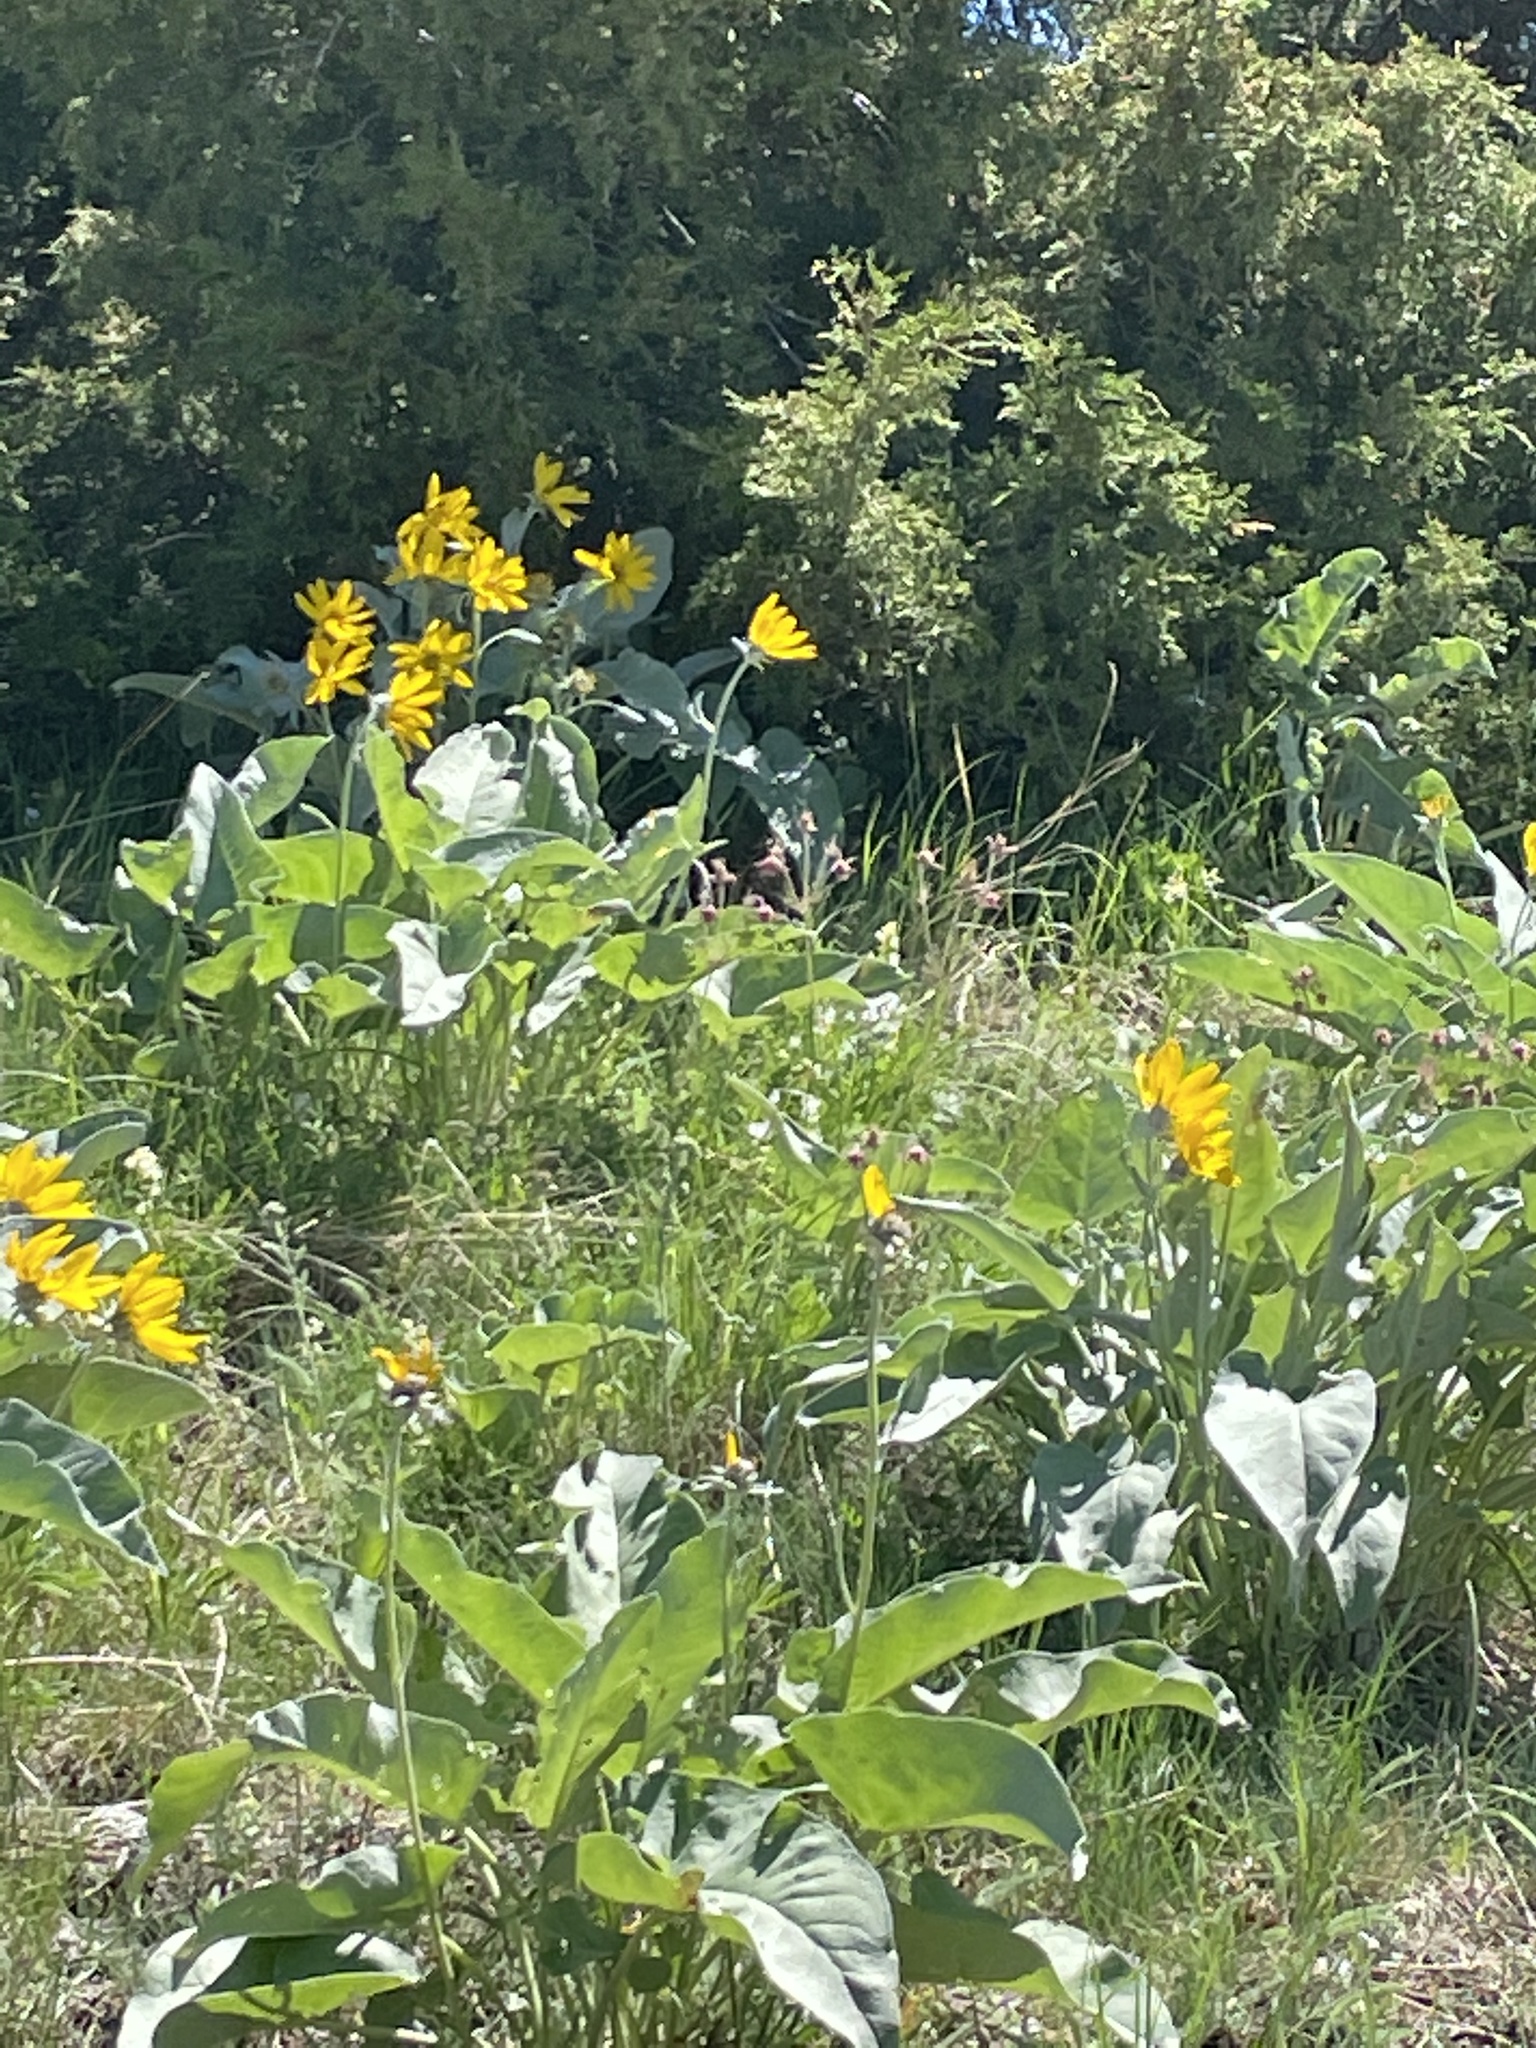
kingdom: Plantae
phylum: Tracheophyta
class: Magnoliopsida
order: Asterales
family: Asteraceae
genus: Wyethia
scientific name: Wyethia sagittata
